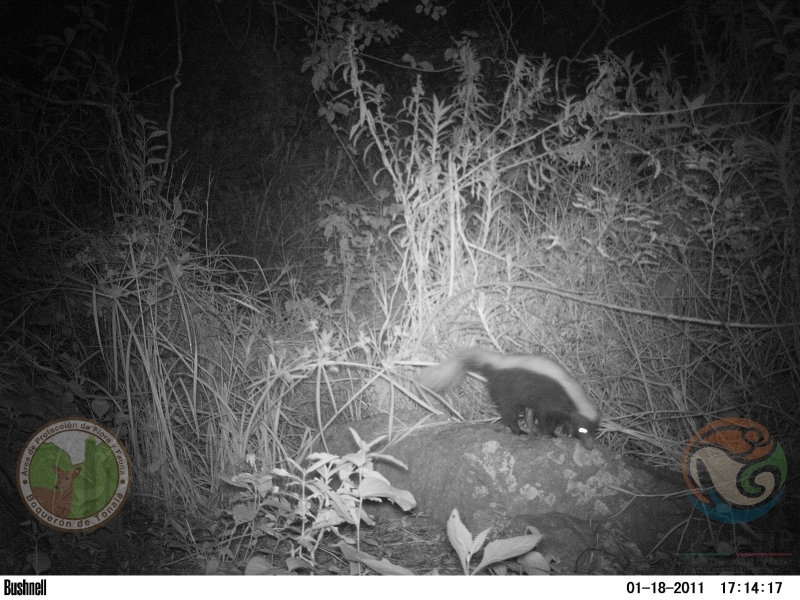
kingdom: Animalia
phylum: Chordata
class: Mammalia
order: Carnivora
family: Mephitidae
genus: Conepatus
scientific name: Conepatus leuconotus
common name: Eastern hog-nosed skunk
